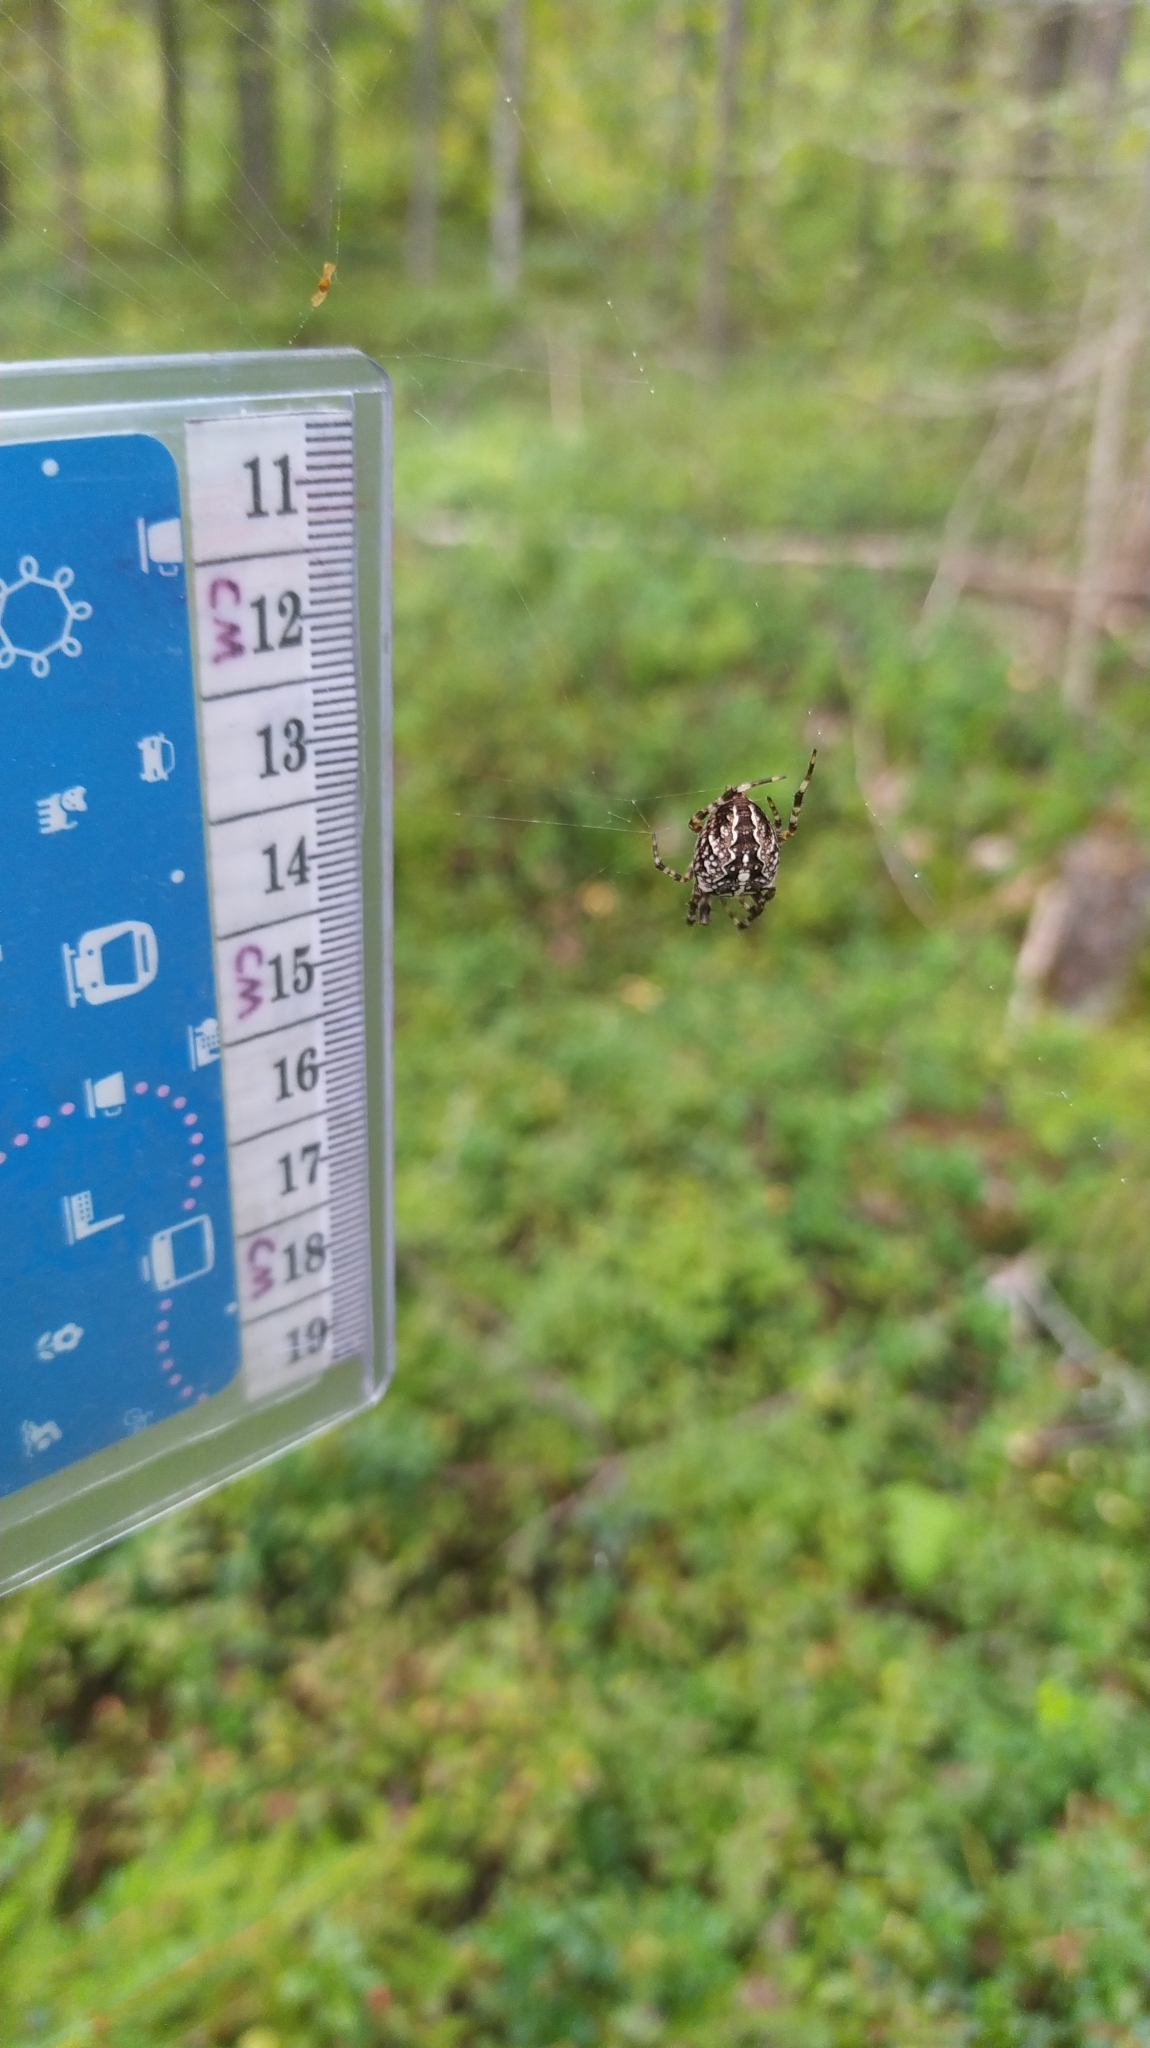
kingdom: Animalia
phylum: Arthropoda
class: Arachnida
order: Araneae
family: Araneidae
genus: Araneus
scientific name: Araneus diadematus
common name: Cross orbweaver
